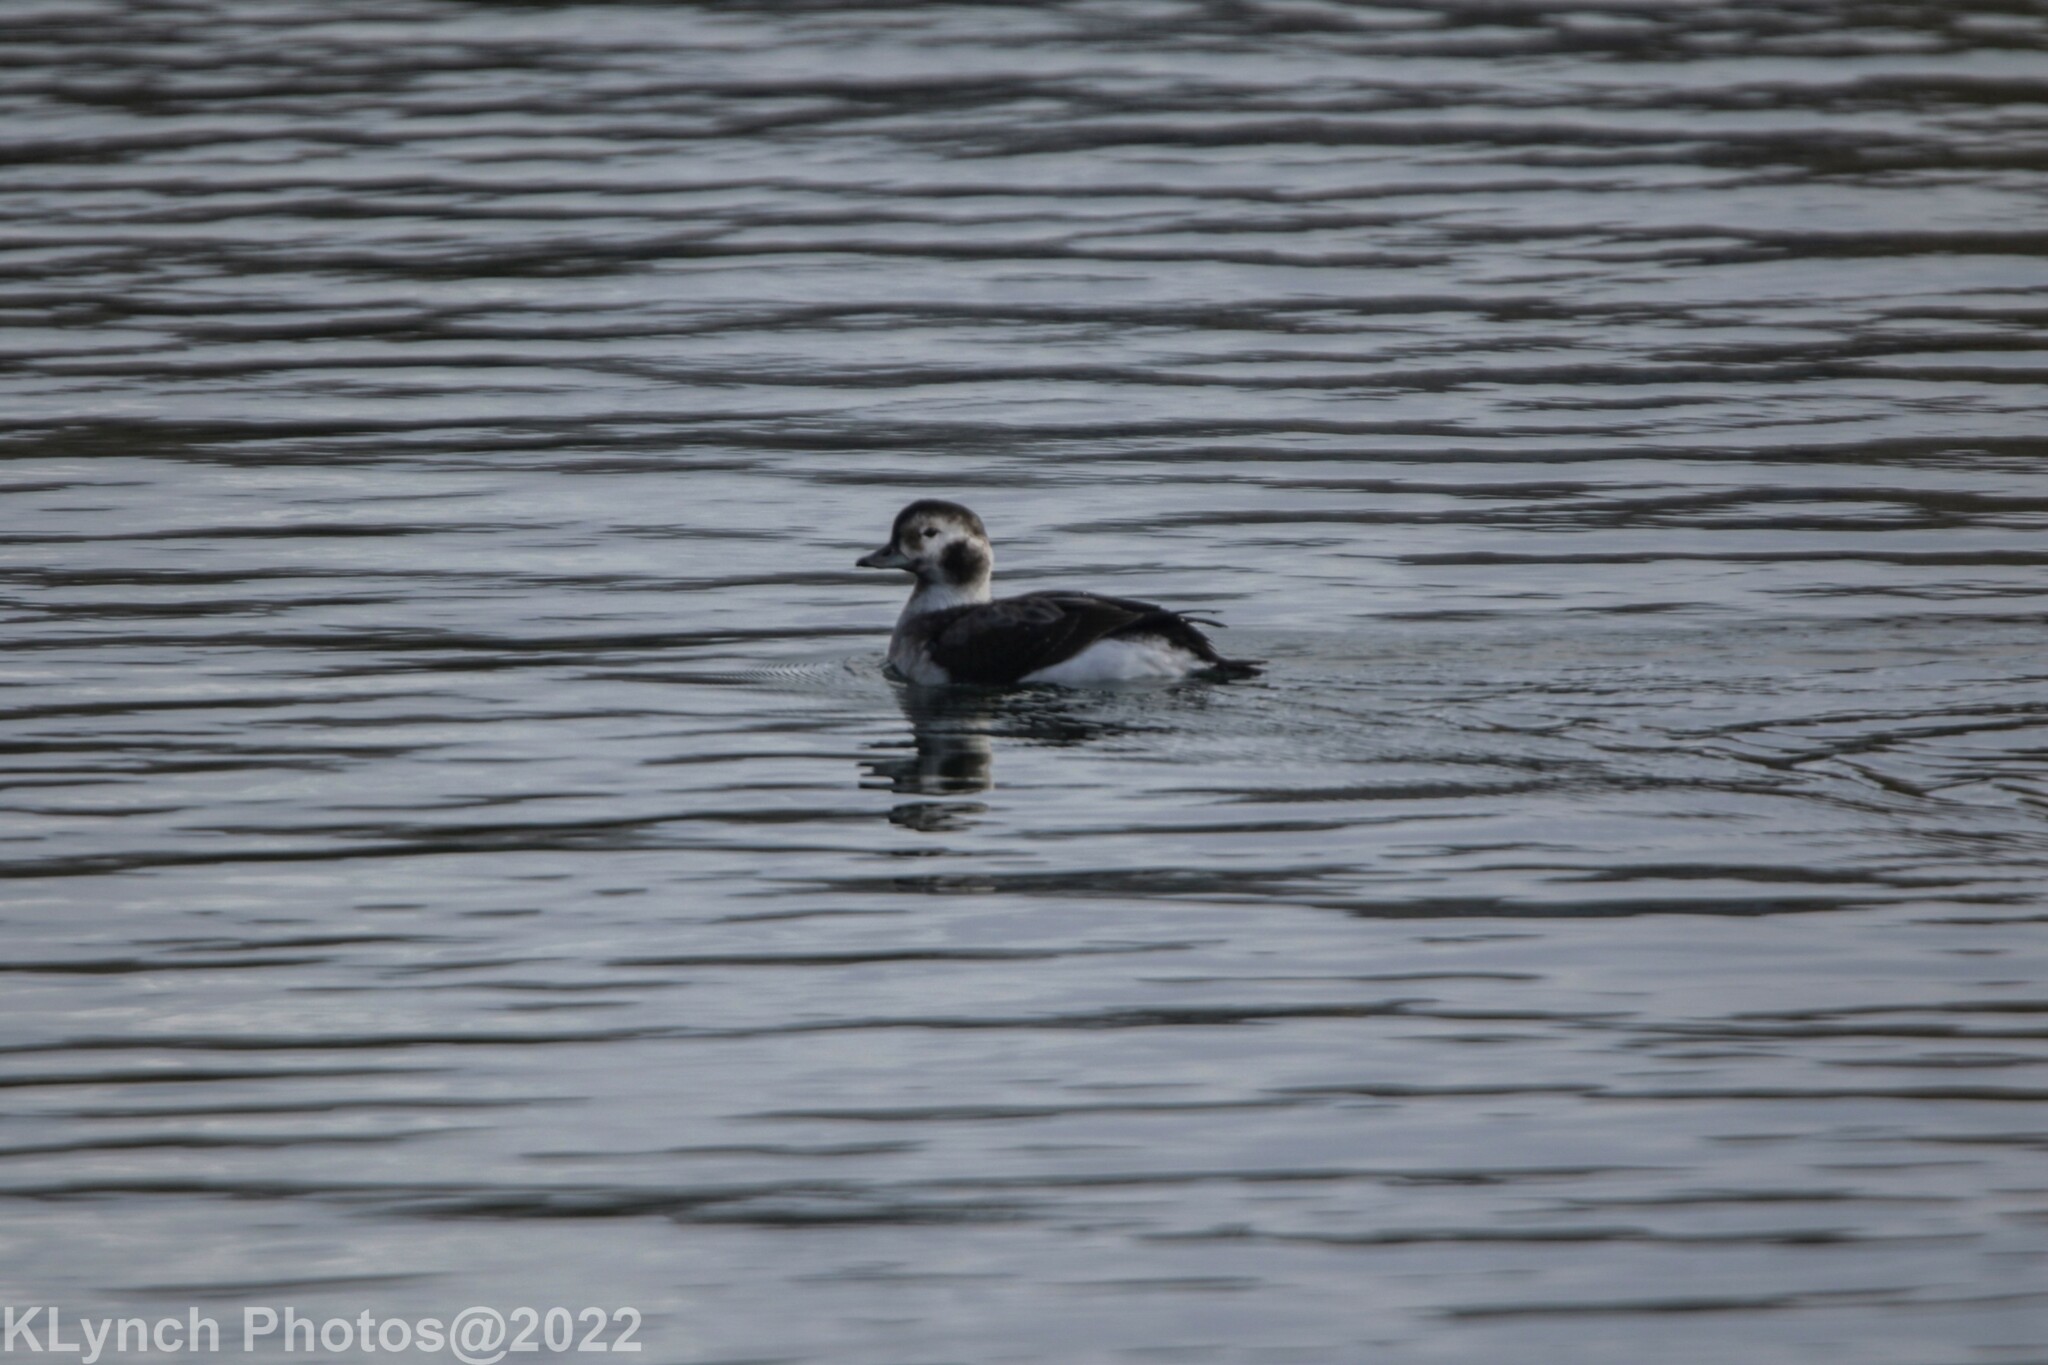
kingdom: Animalia
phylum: Chordata
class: Aves
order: Anseriformes
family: Anatidae
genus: Clangula
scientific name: Clangula hyemalis
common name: Long-tailed duck
